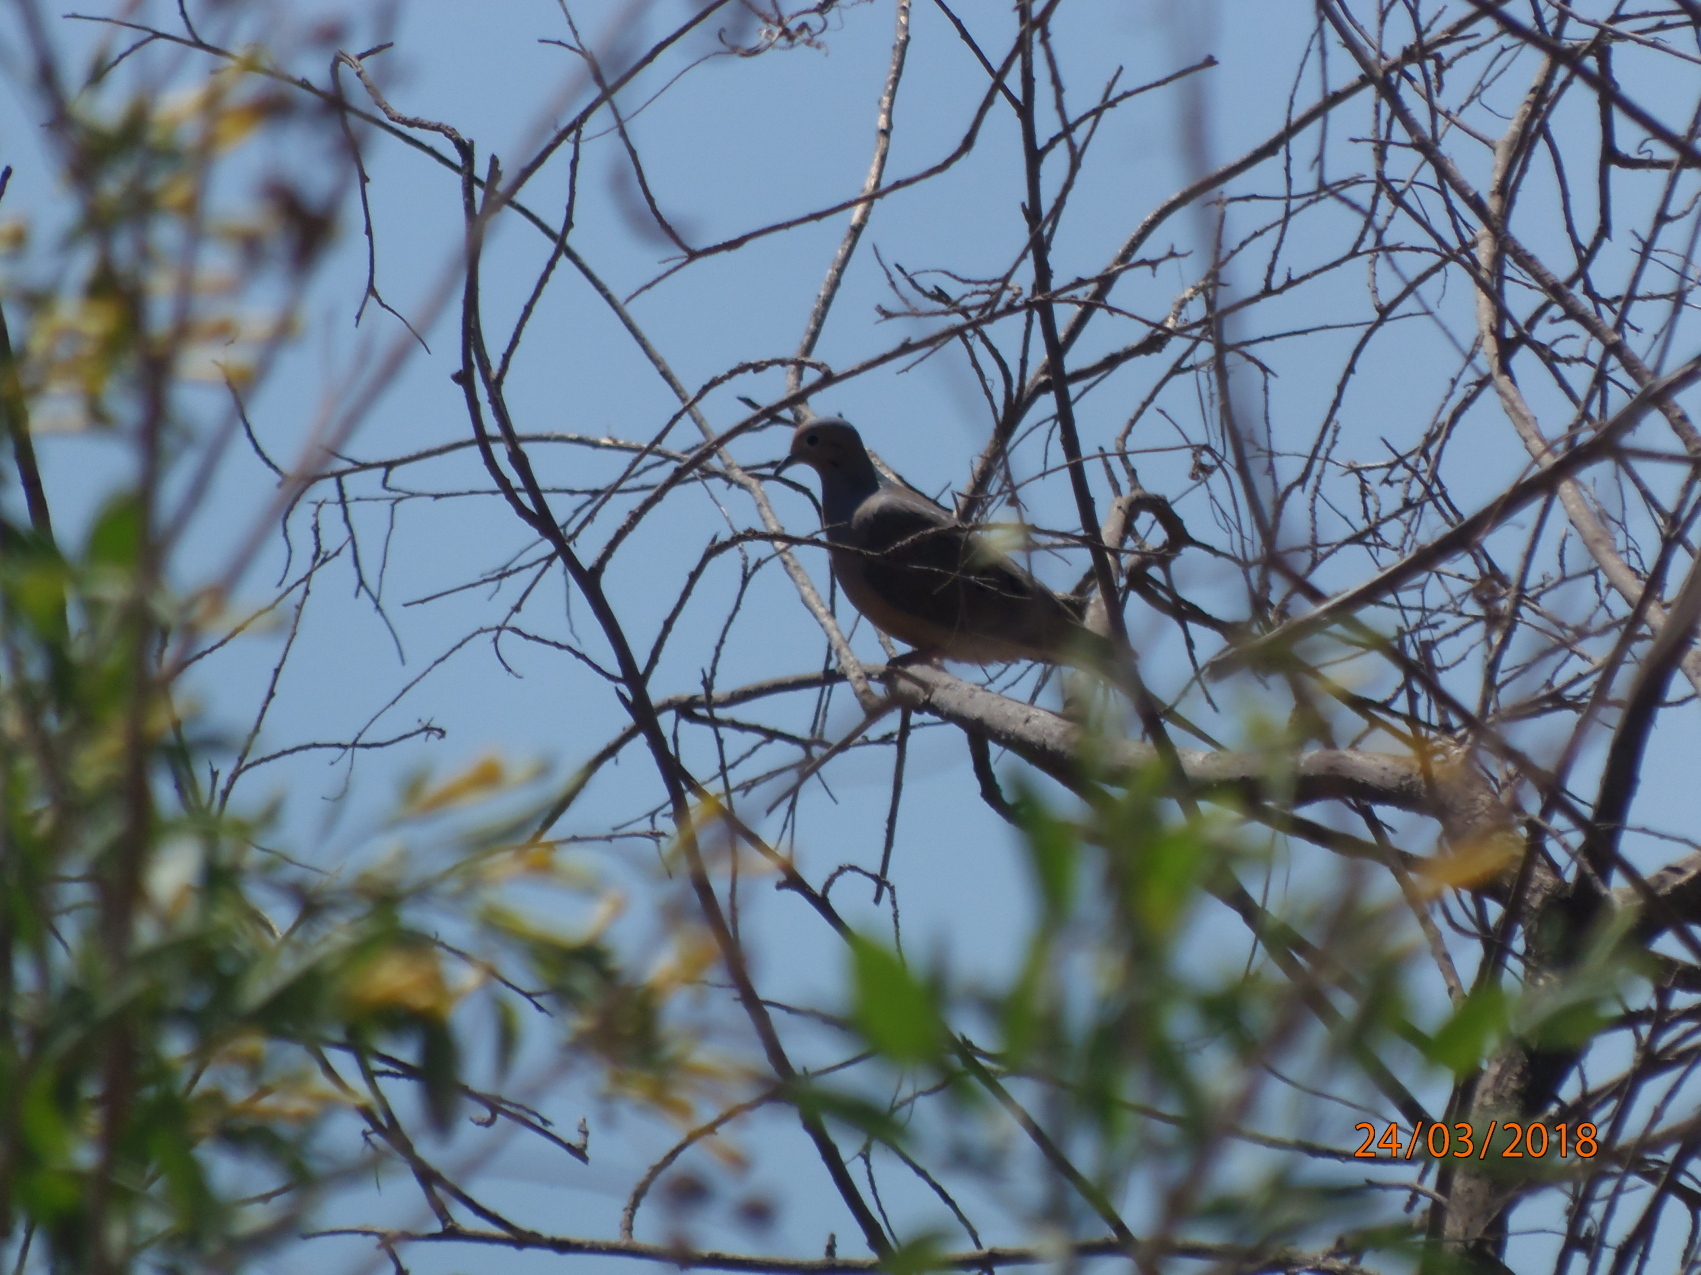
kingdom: Animalia
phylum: Chordata
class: Aves
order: Columbiformes
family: Columbidae
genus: Zenaida
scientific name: Zenaida macroura
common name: Mourning dove
